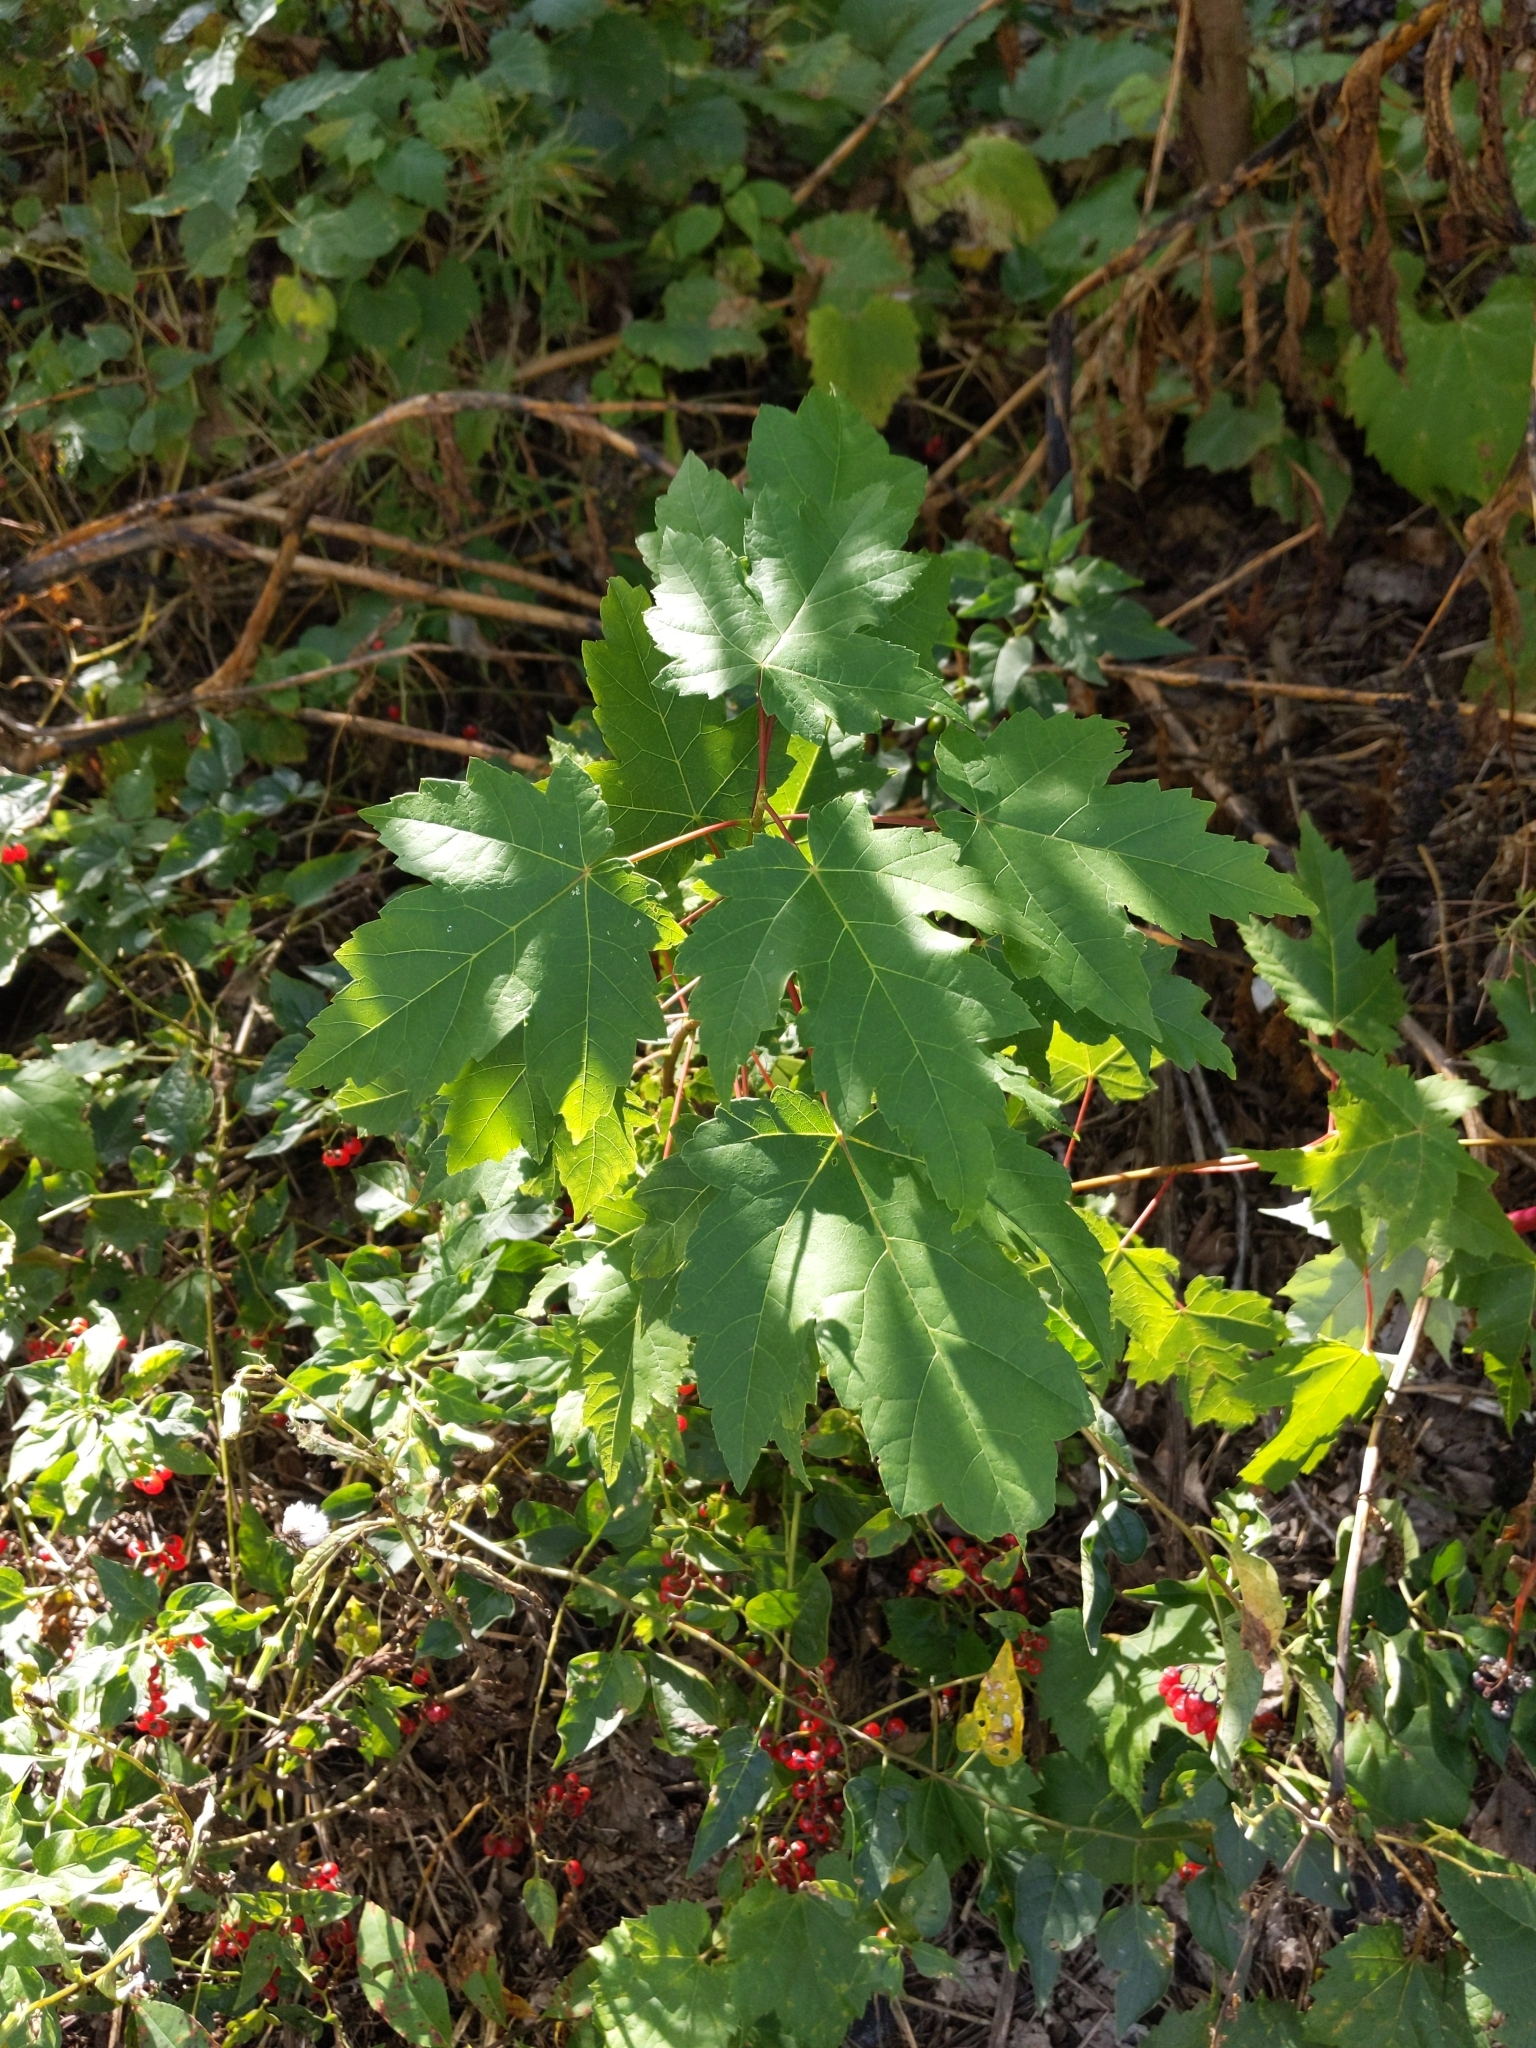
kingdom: Plantae
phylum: Tracheophyta
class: Magnoliopsida
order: Sapindales
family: Sapindaceae
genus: Acer
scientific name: Acer rubrum
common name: Red maple
